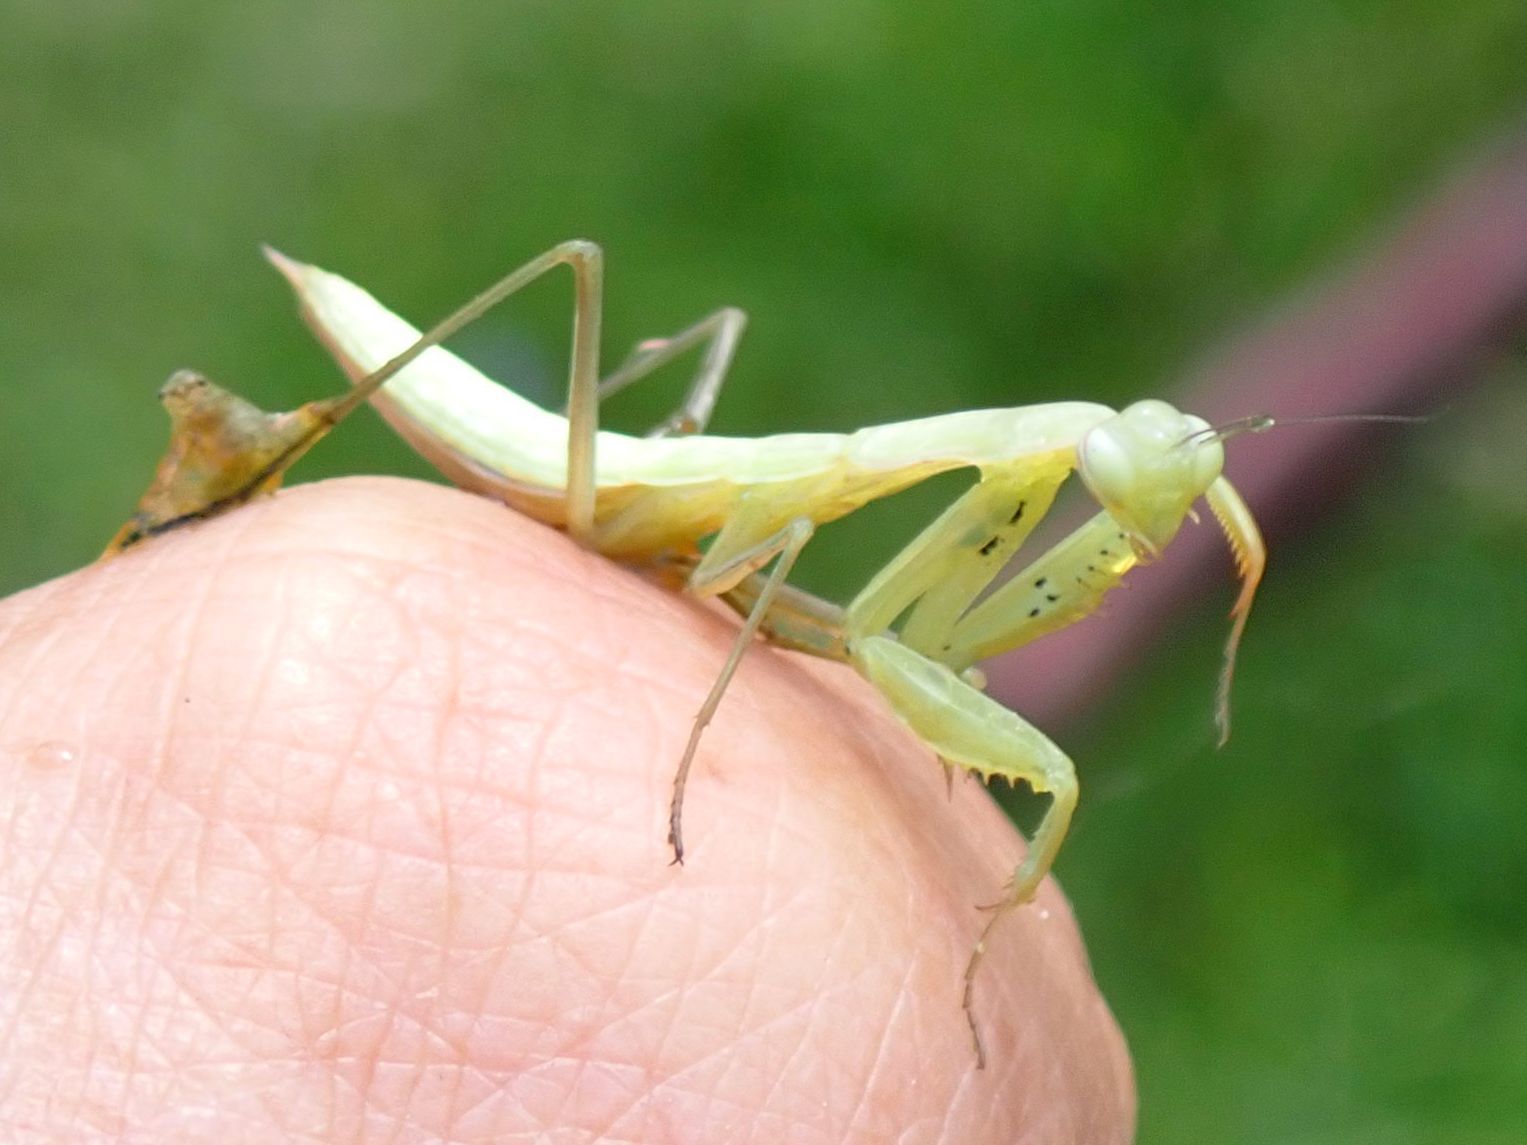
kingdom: Animalia
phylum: Arthropoda
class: Insecta
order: Mantodea
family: Mantidae
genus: Mantis
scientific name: Mantis religiosa
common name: Praying mantis
